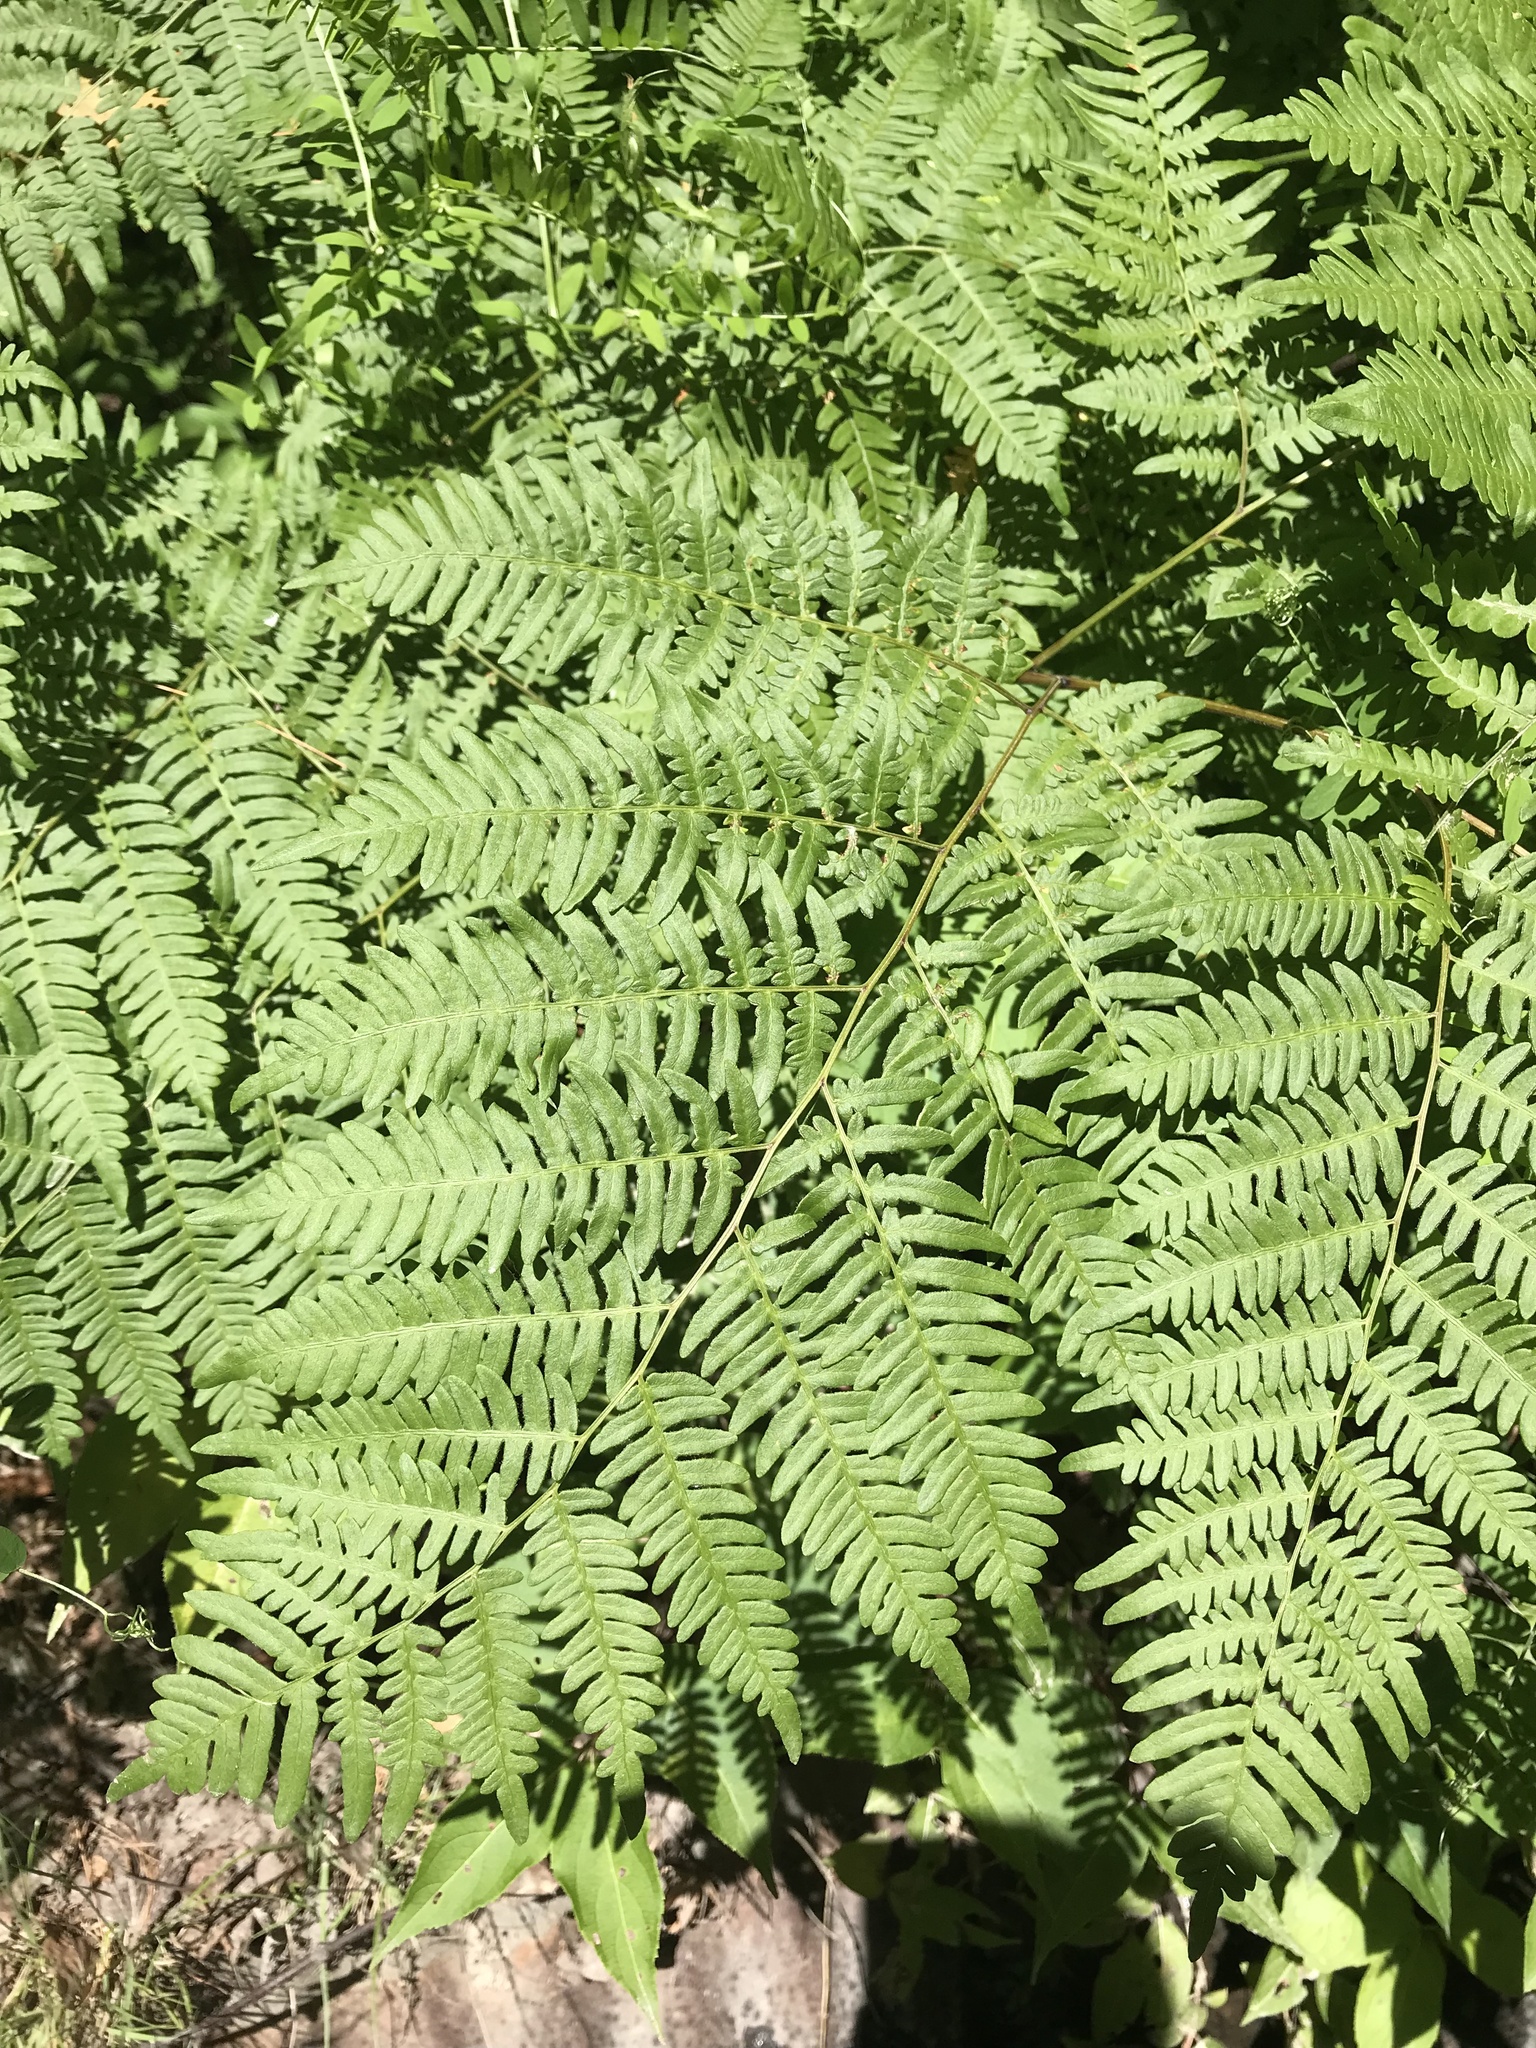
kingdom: Plantae
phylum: Tracheophyta
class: Polypodiopsida
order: Polypodiales
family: Dennstaedtiaceae
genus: Pteridium
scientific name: Pteridium aquilinum
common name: Bracken
